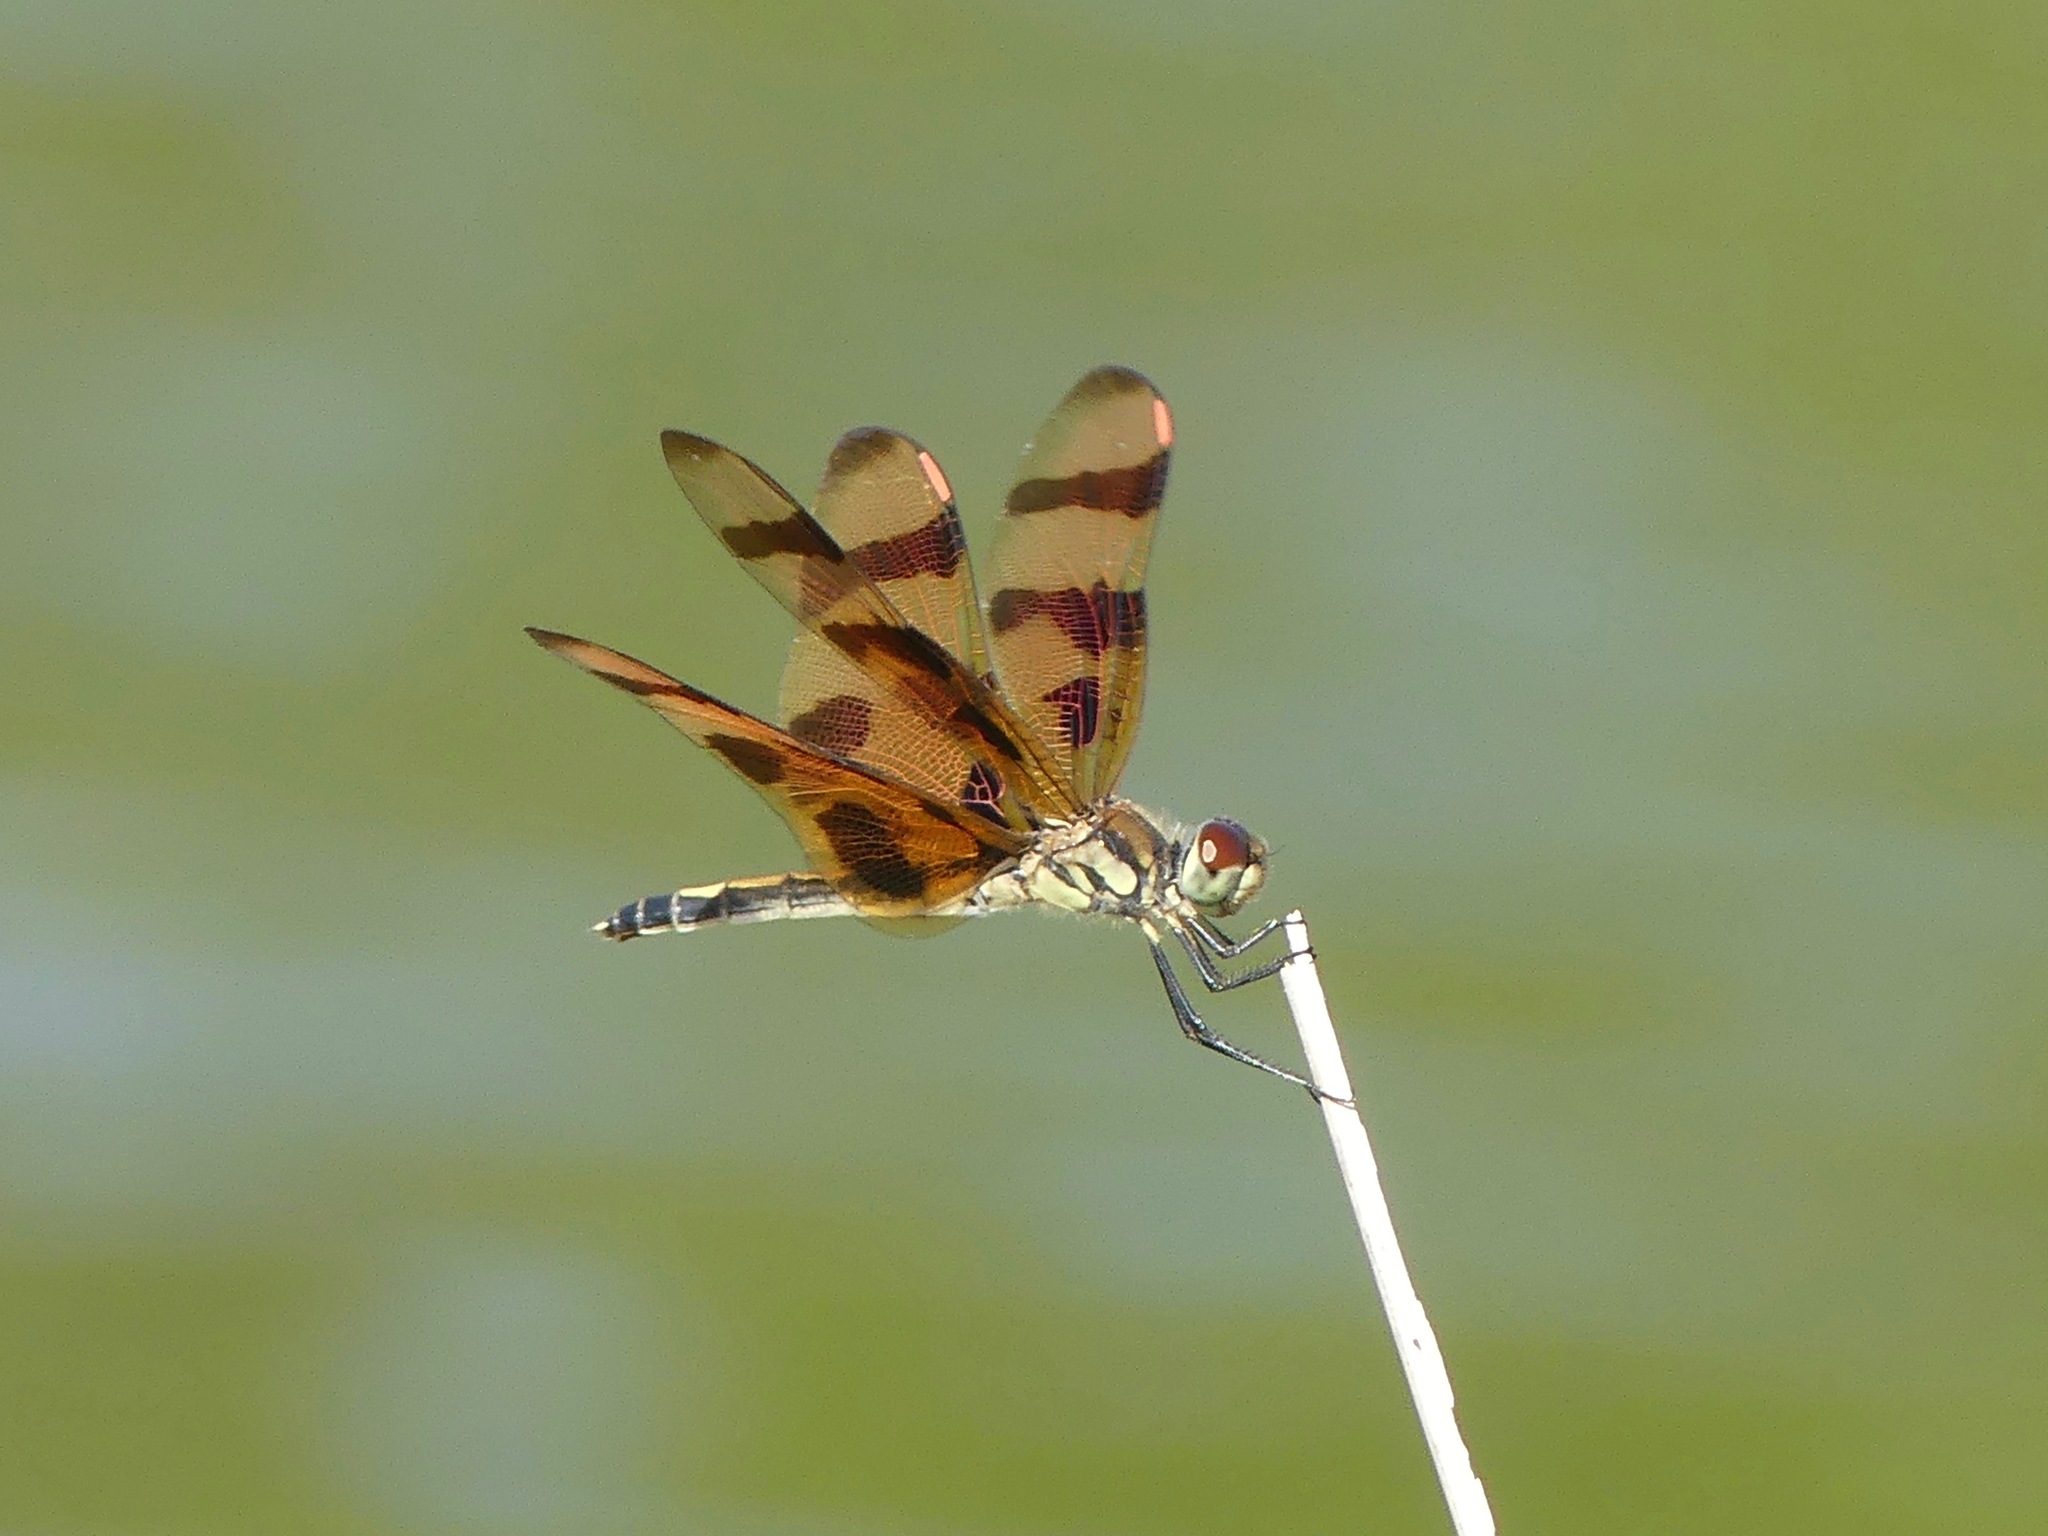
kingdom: Animalia
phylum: Arthropoda
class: Insecta
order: Odonata
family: Libellulidae
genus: Celithemis
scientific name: Celithemis eponina
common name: Halloween pennant
